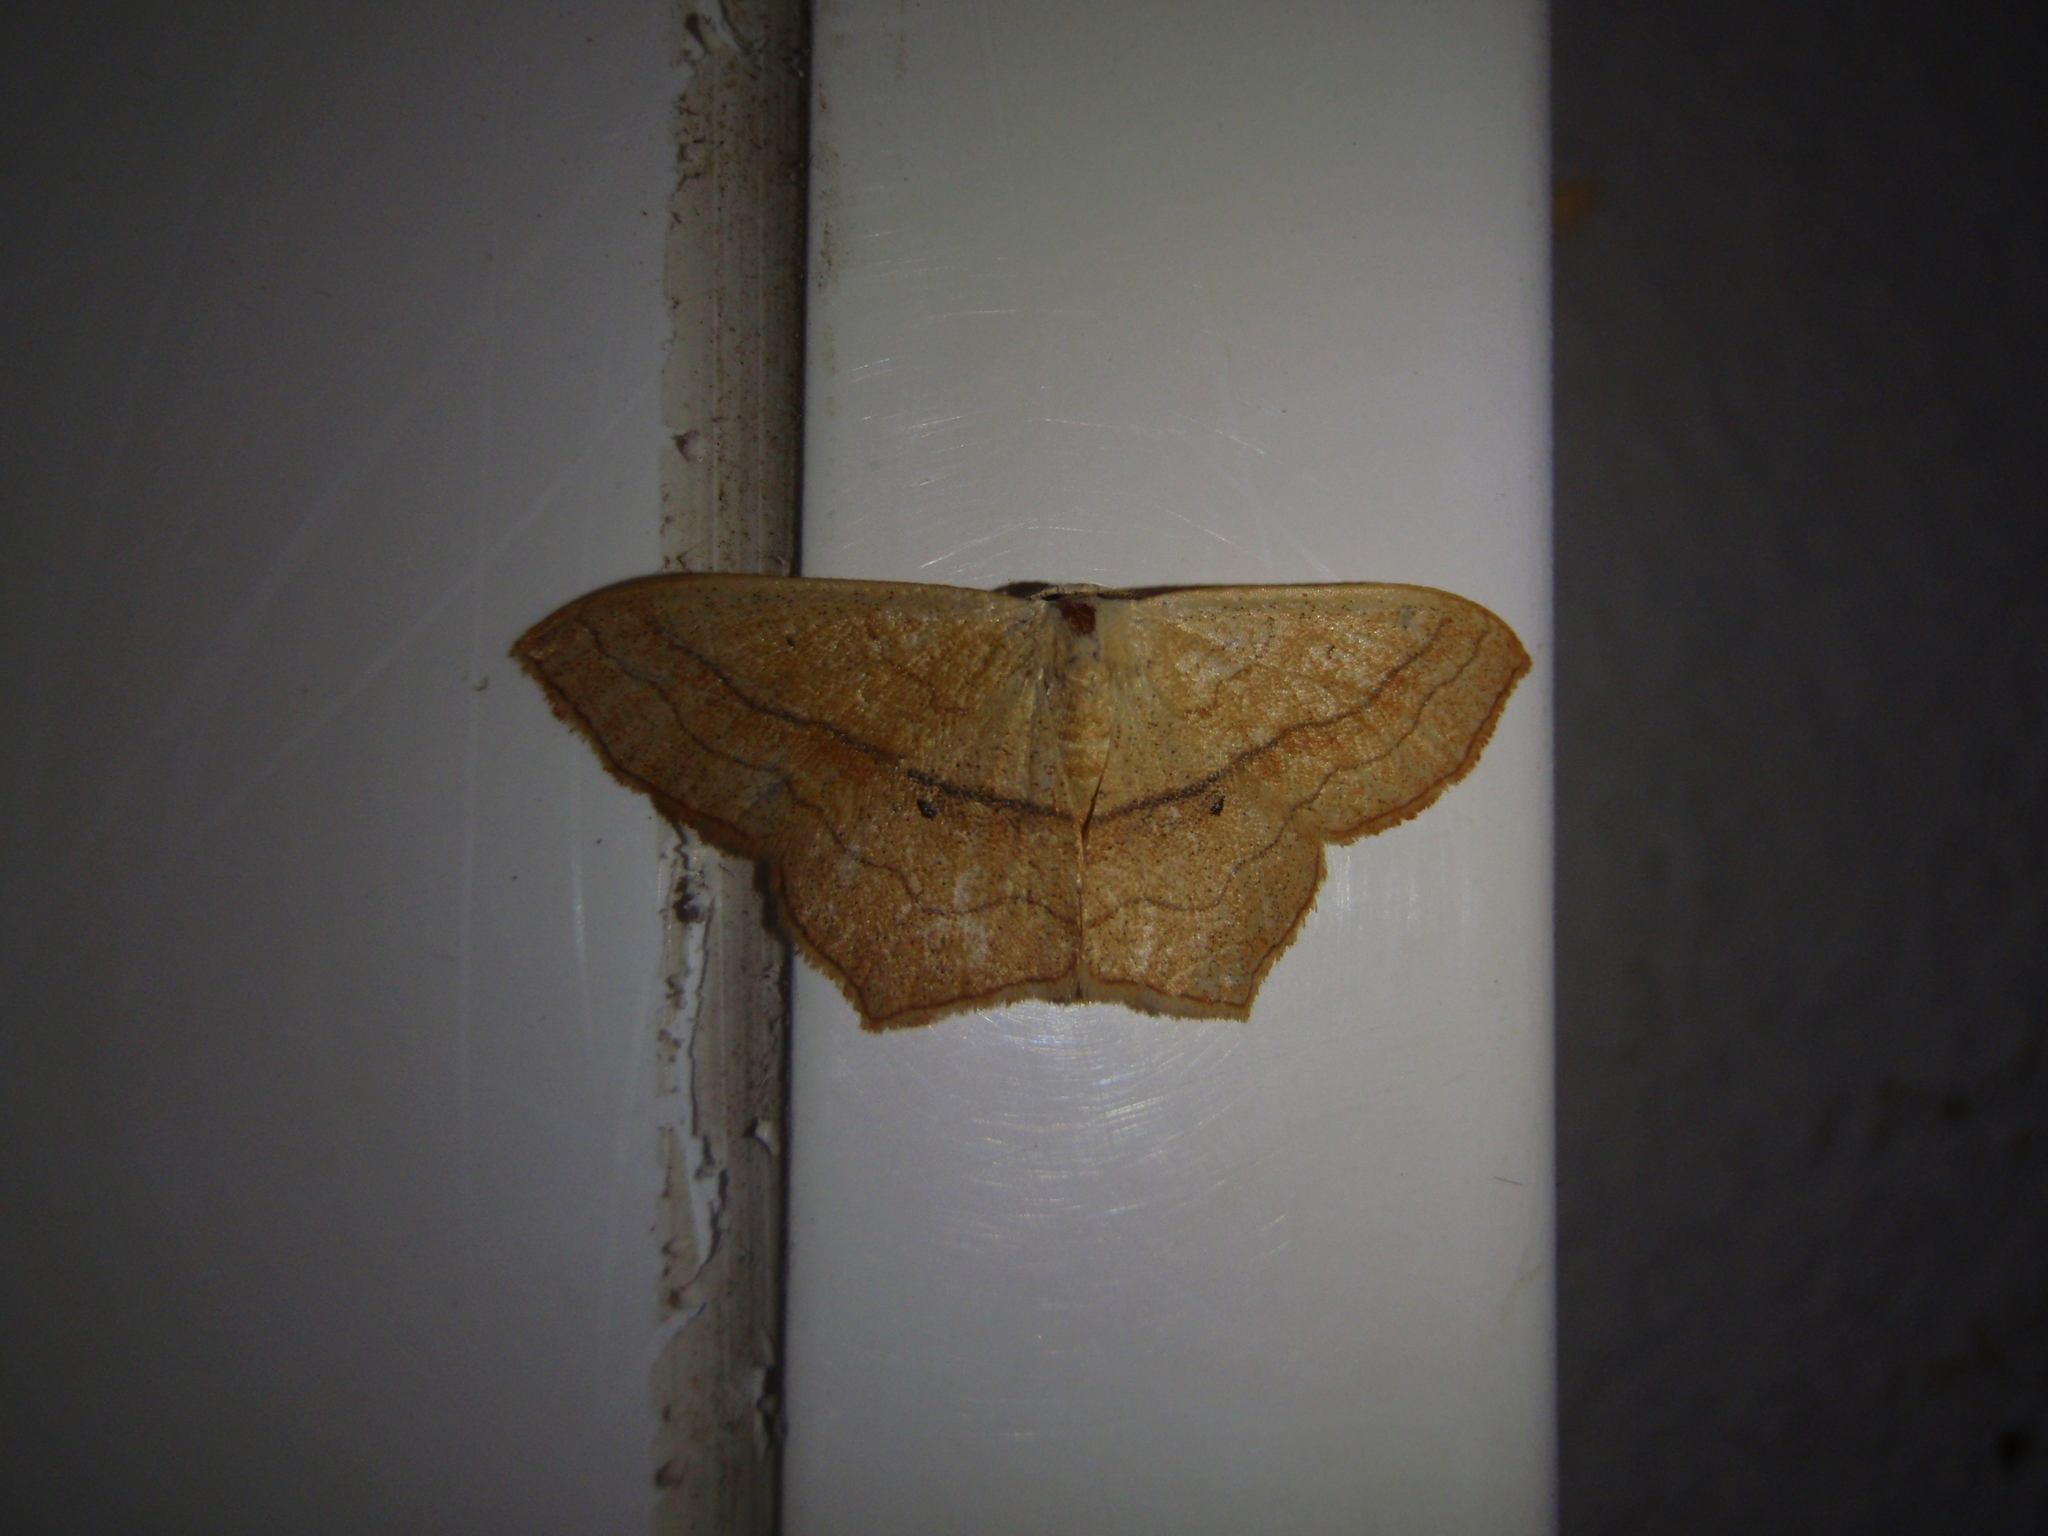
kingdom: Animalia
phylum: Arthropoda
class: Insecta
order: Lepidoptera
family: Geometridae
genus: Scopula
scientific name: Scopula imitaria
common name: Small blood-vein
